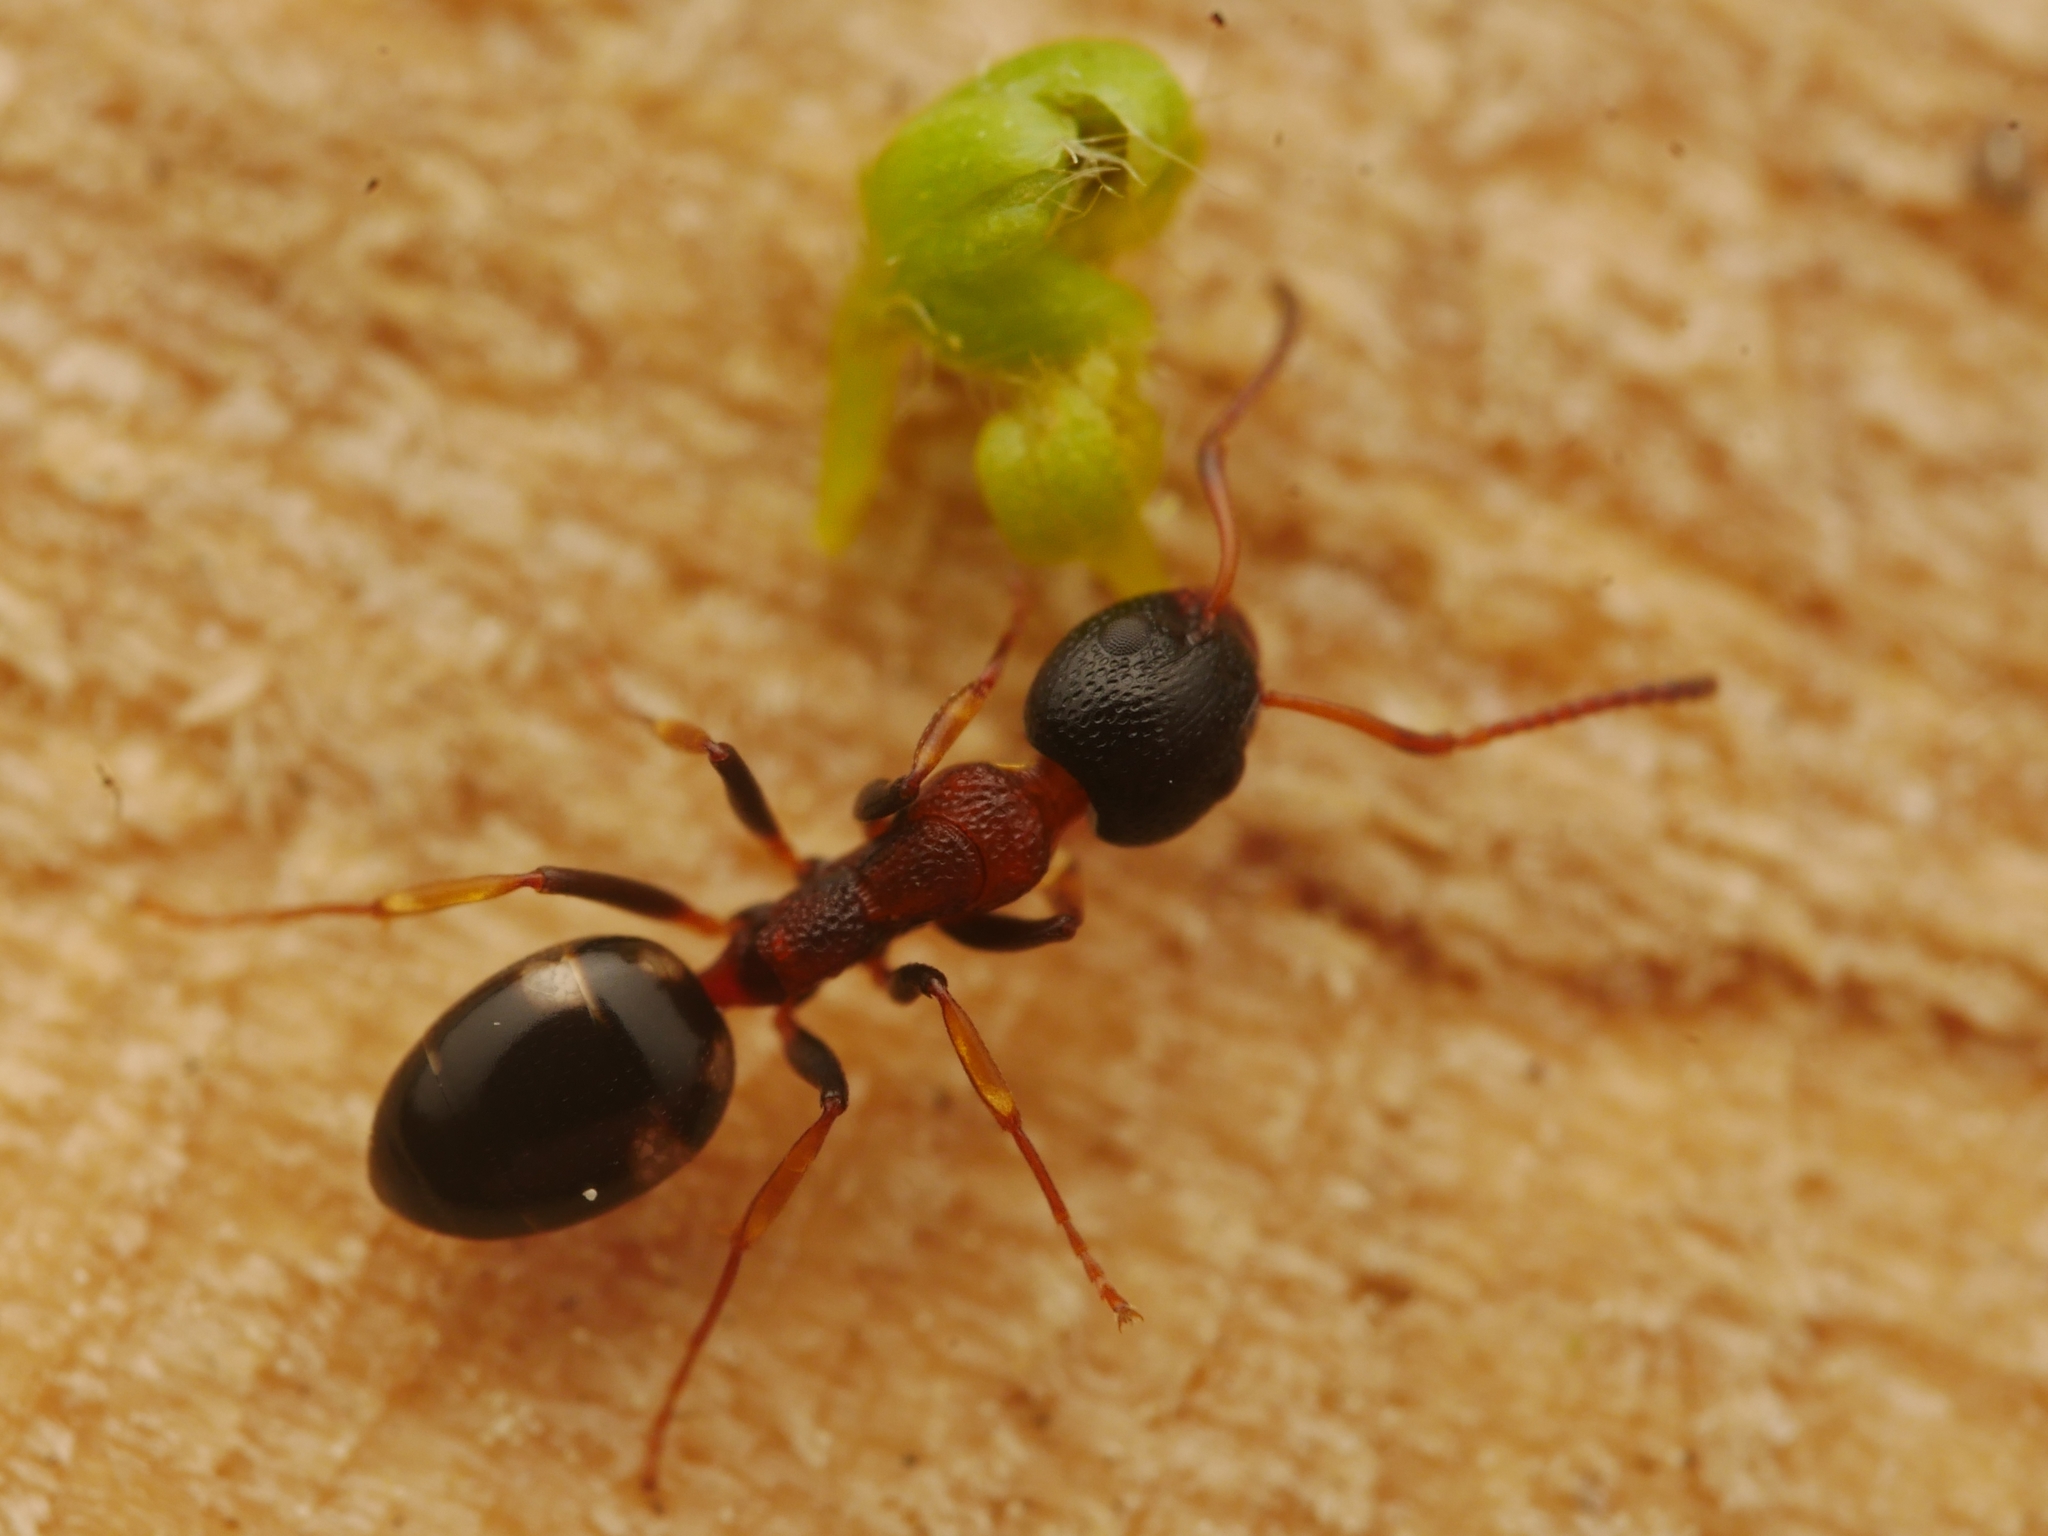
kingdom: Animalia
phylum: Arthropoda
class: Insecta
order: Hymenoptera
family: Formicidae
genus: Dolichoderus
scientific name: Dolichoderus quadripunctatus
